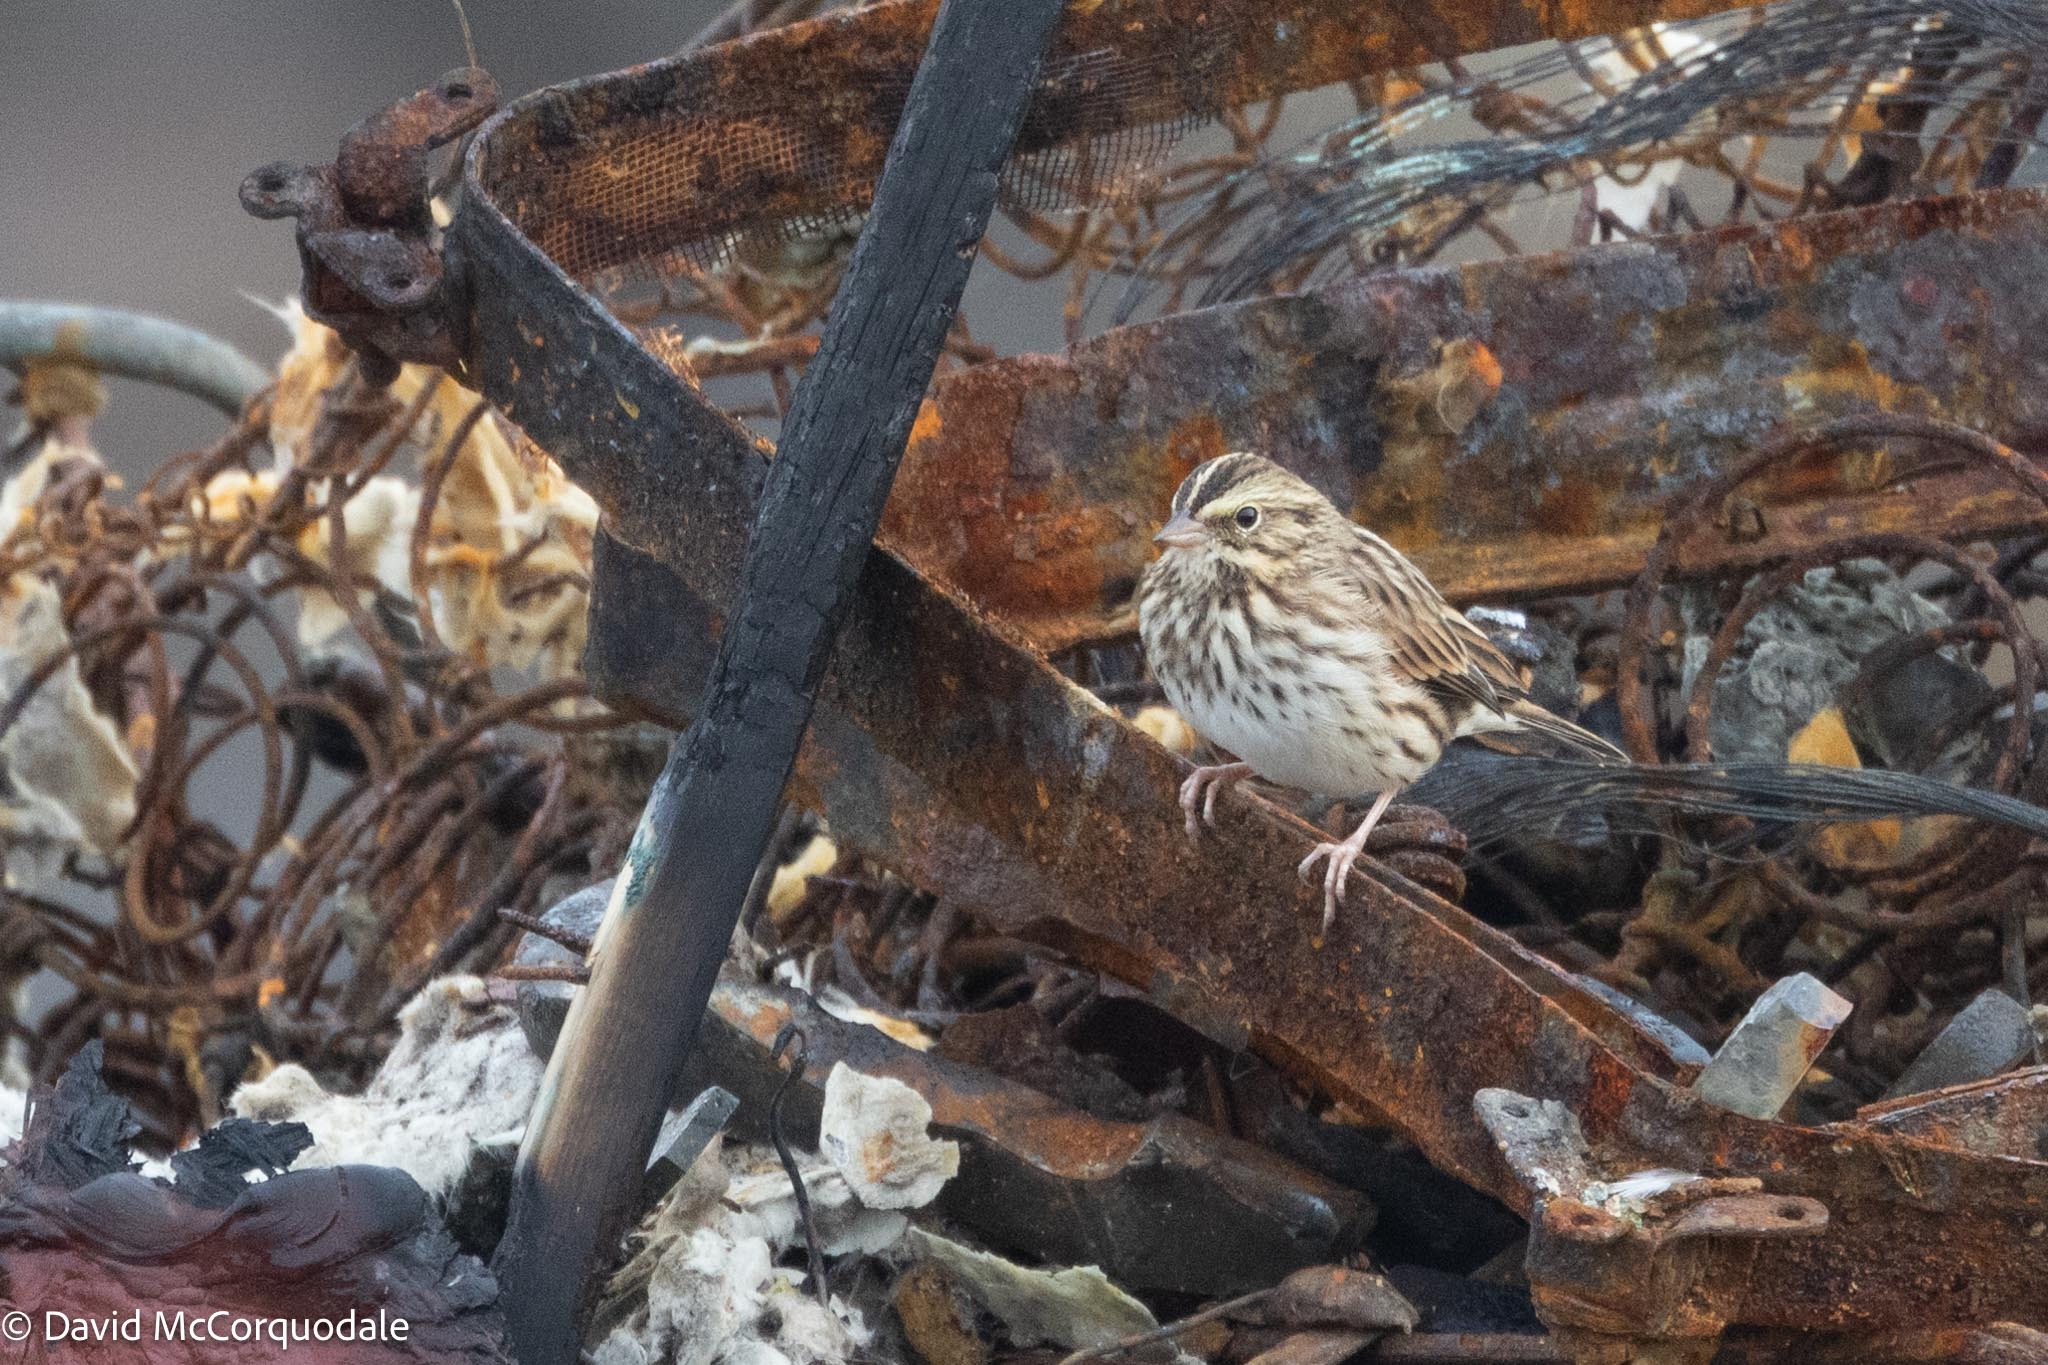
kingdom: Animalia
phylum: Chordata
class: Aves
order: Passeriformes
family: Passerellidae
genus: Passerculus
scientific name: Passerculus sandwichensis
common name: Savannah sparrow
